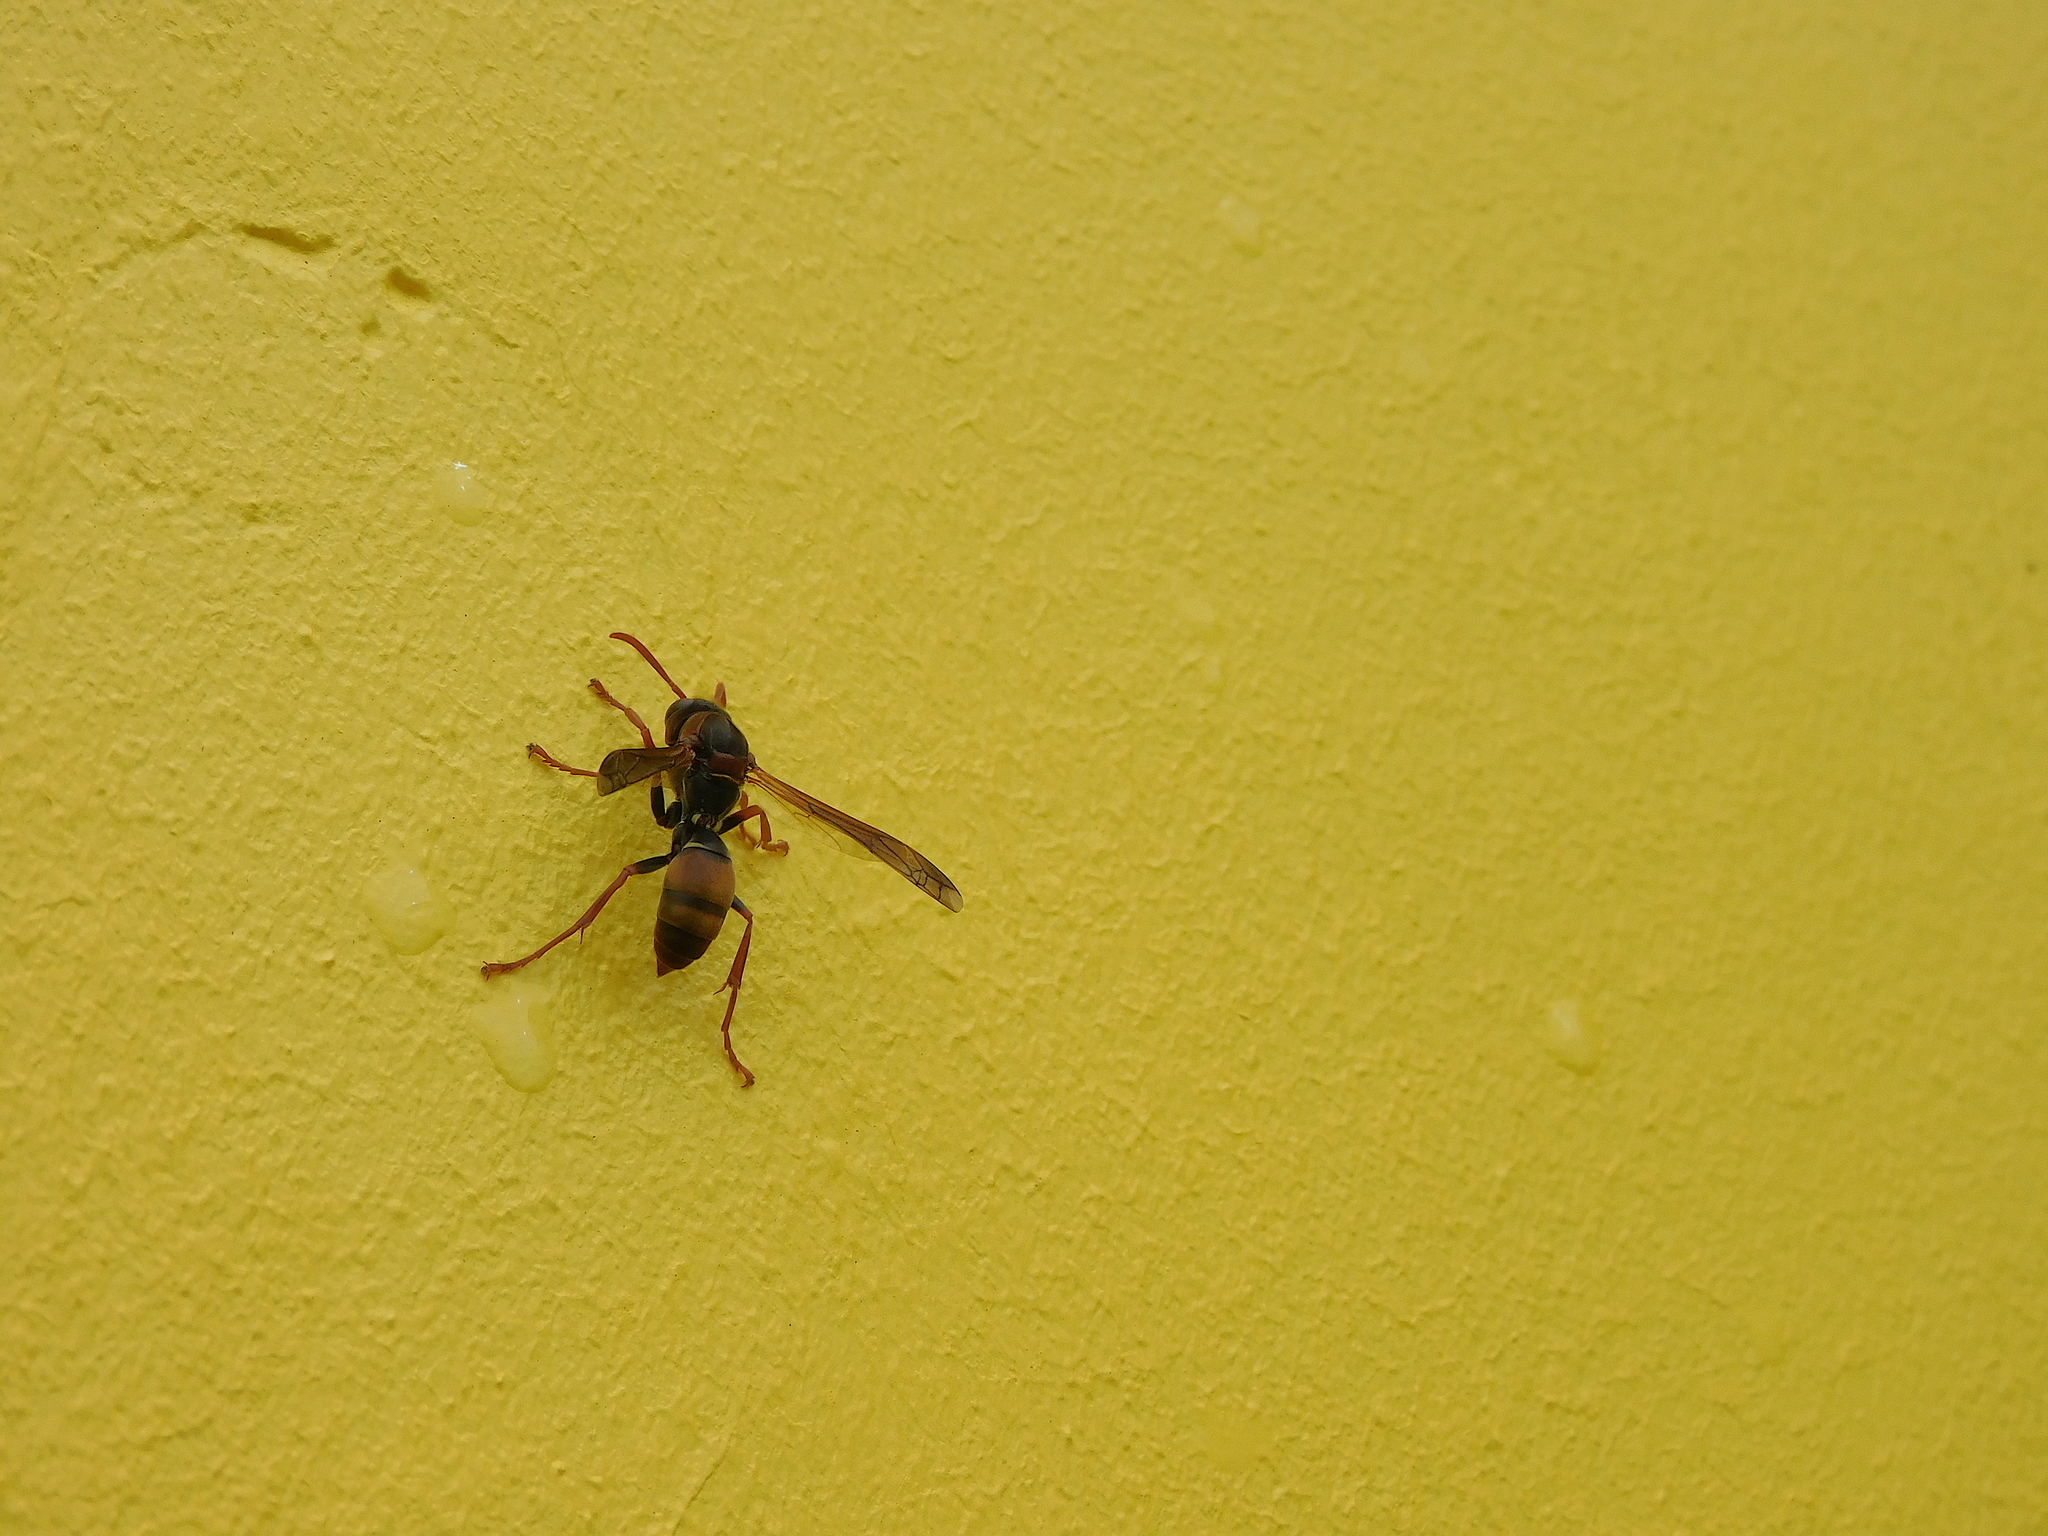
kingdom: Animalia
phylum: Arthropoda
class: Insecta
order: Hymenoptera
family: Eumenidae
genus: Polistes
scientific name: Polistes humilis
